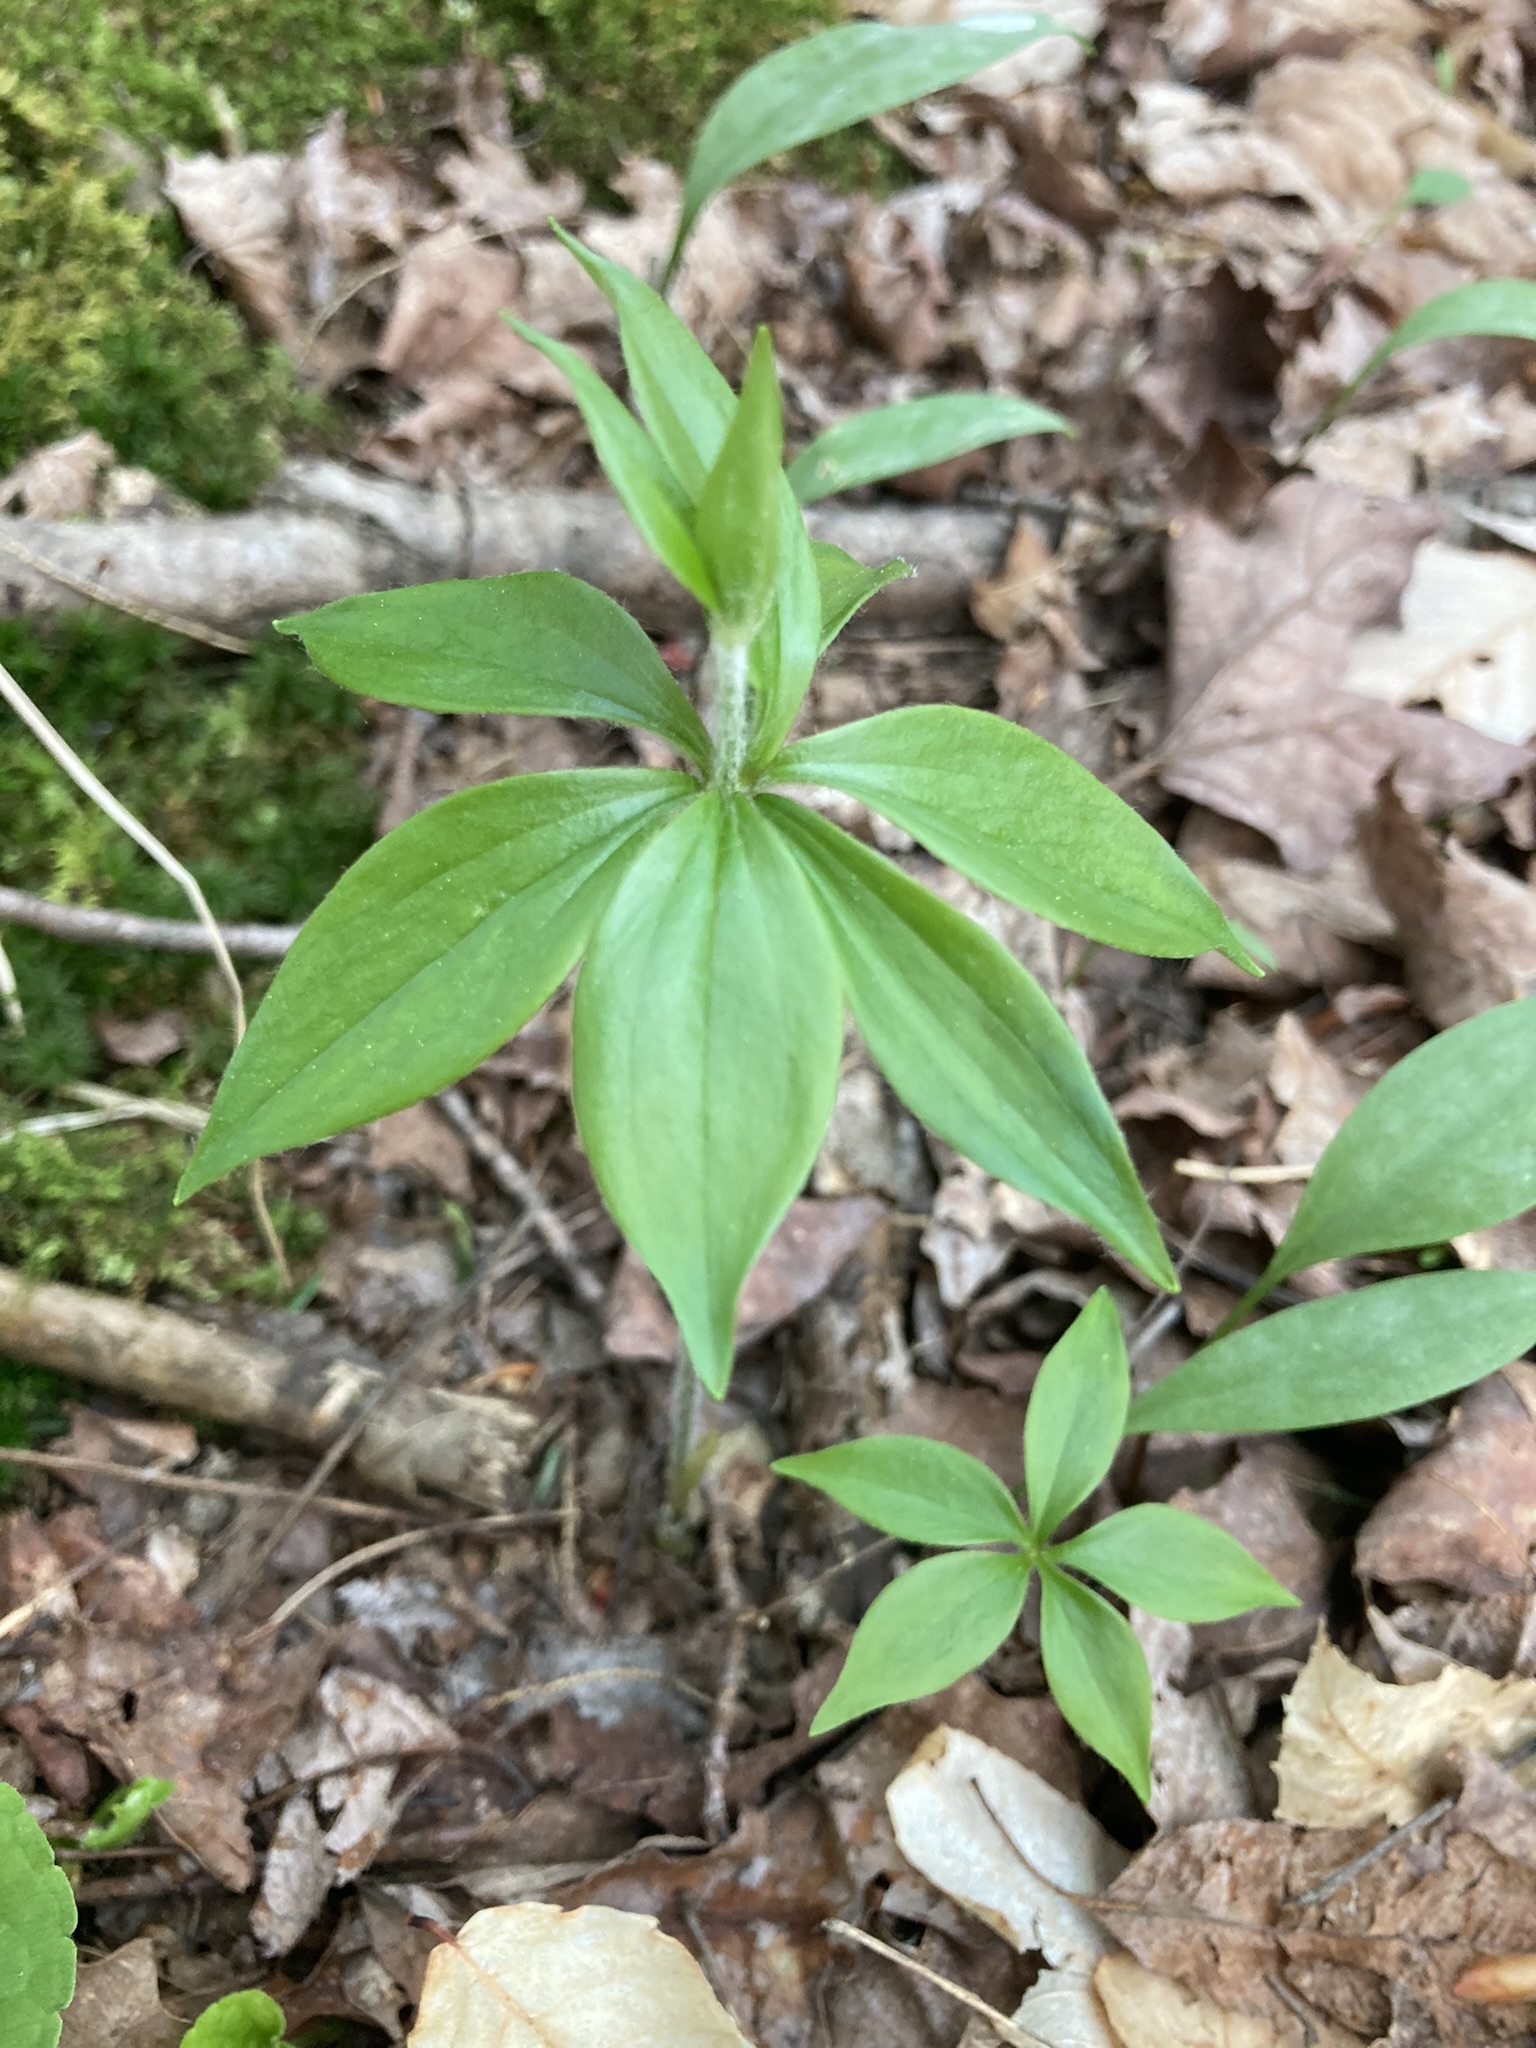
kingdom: Plantae
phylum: Tracheophyta
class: Liliopsida
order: Liliales
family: Liliaceae
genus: Medeola
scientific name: Medeola virginiana
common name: Indian cucumber-root
